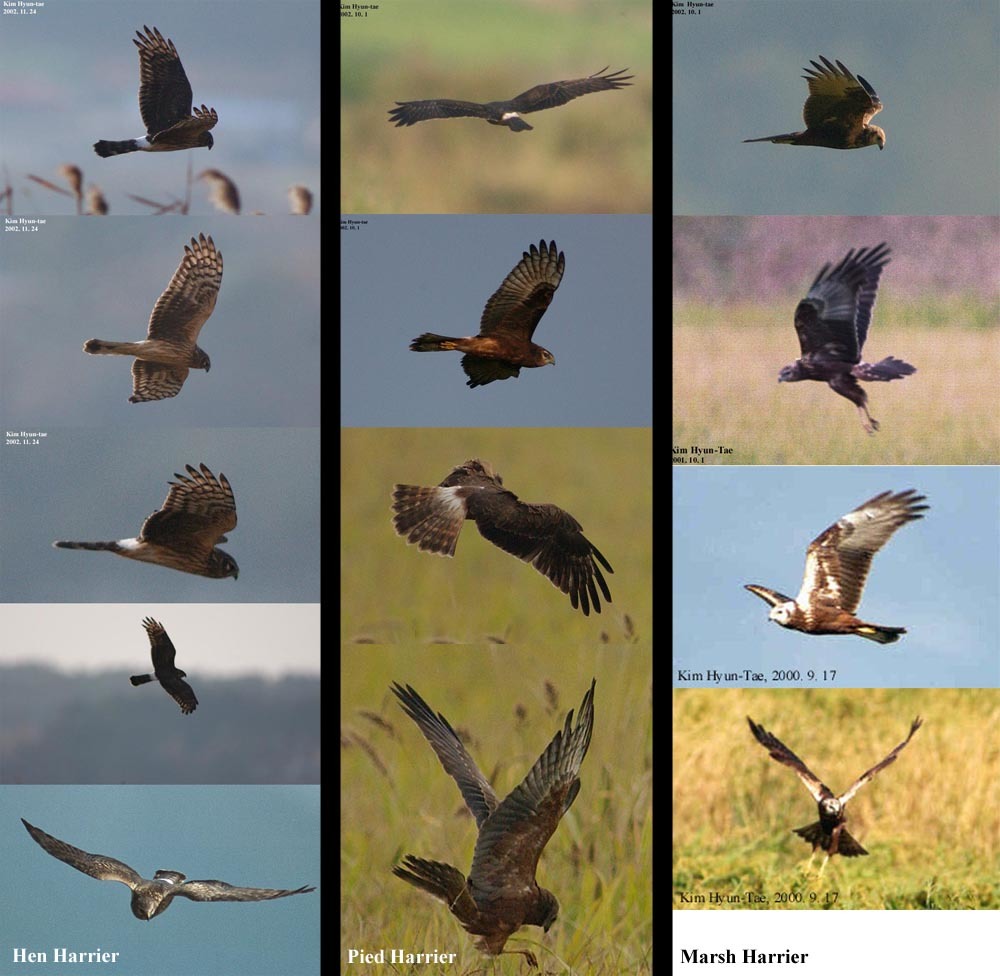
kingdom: Animalia
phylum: Chordata
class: Aves
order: Accipitriformes
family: Accipitridae
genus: Circus
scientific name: Circus spilonotus
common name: Eastern marsh-harrier
